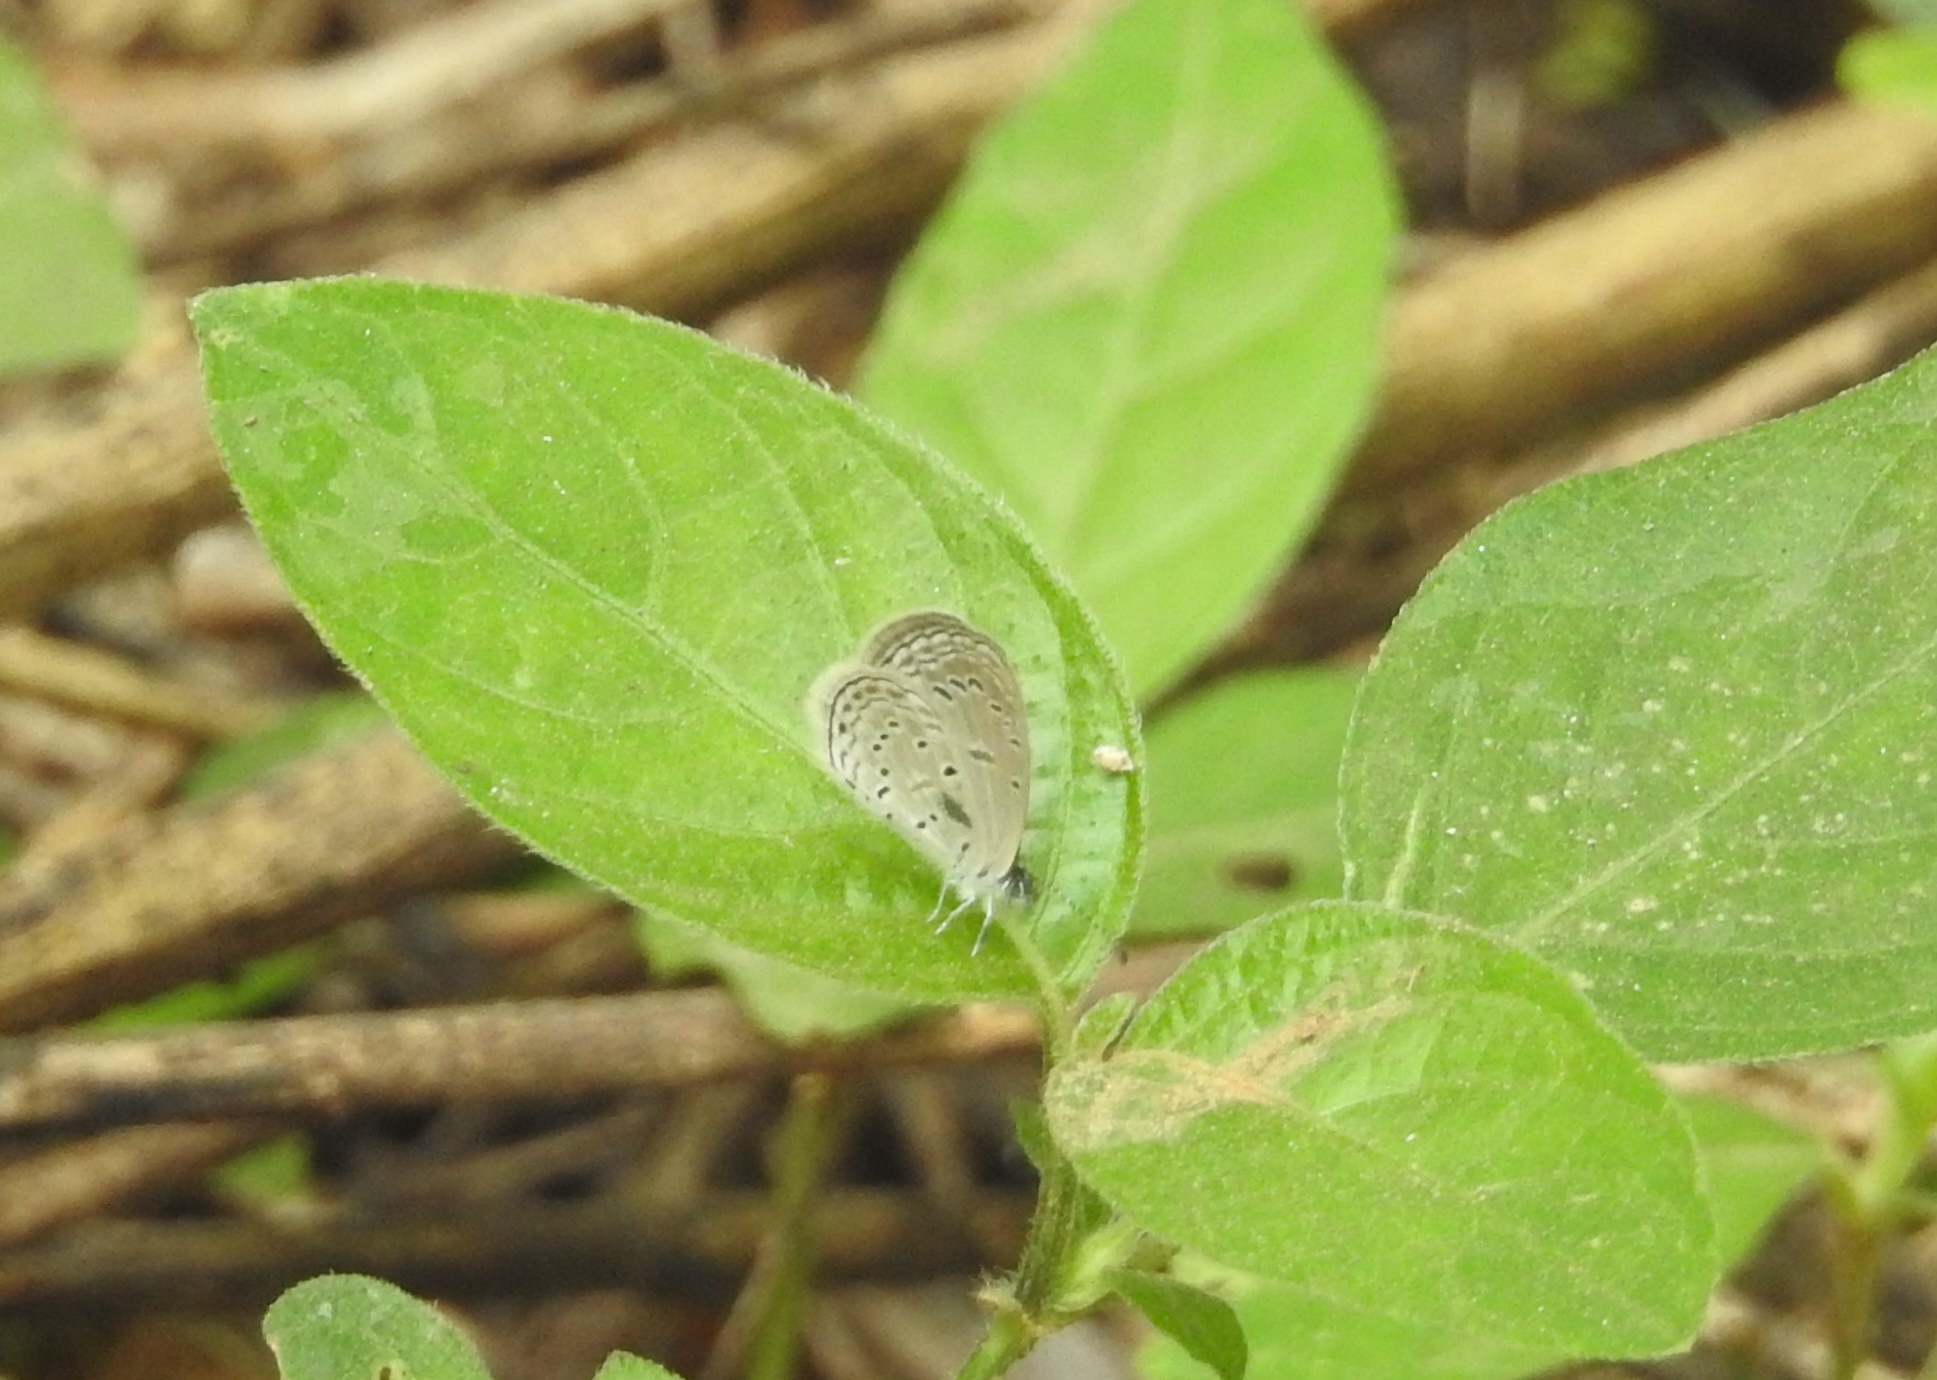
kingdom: Animalia
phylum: Arthropoda
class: Insecta
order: Lepidoptera
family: Lycaenidae
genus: Zizula
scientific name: Zizula hylax
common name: Gaika blue
